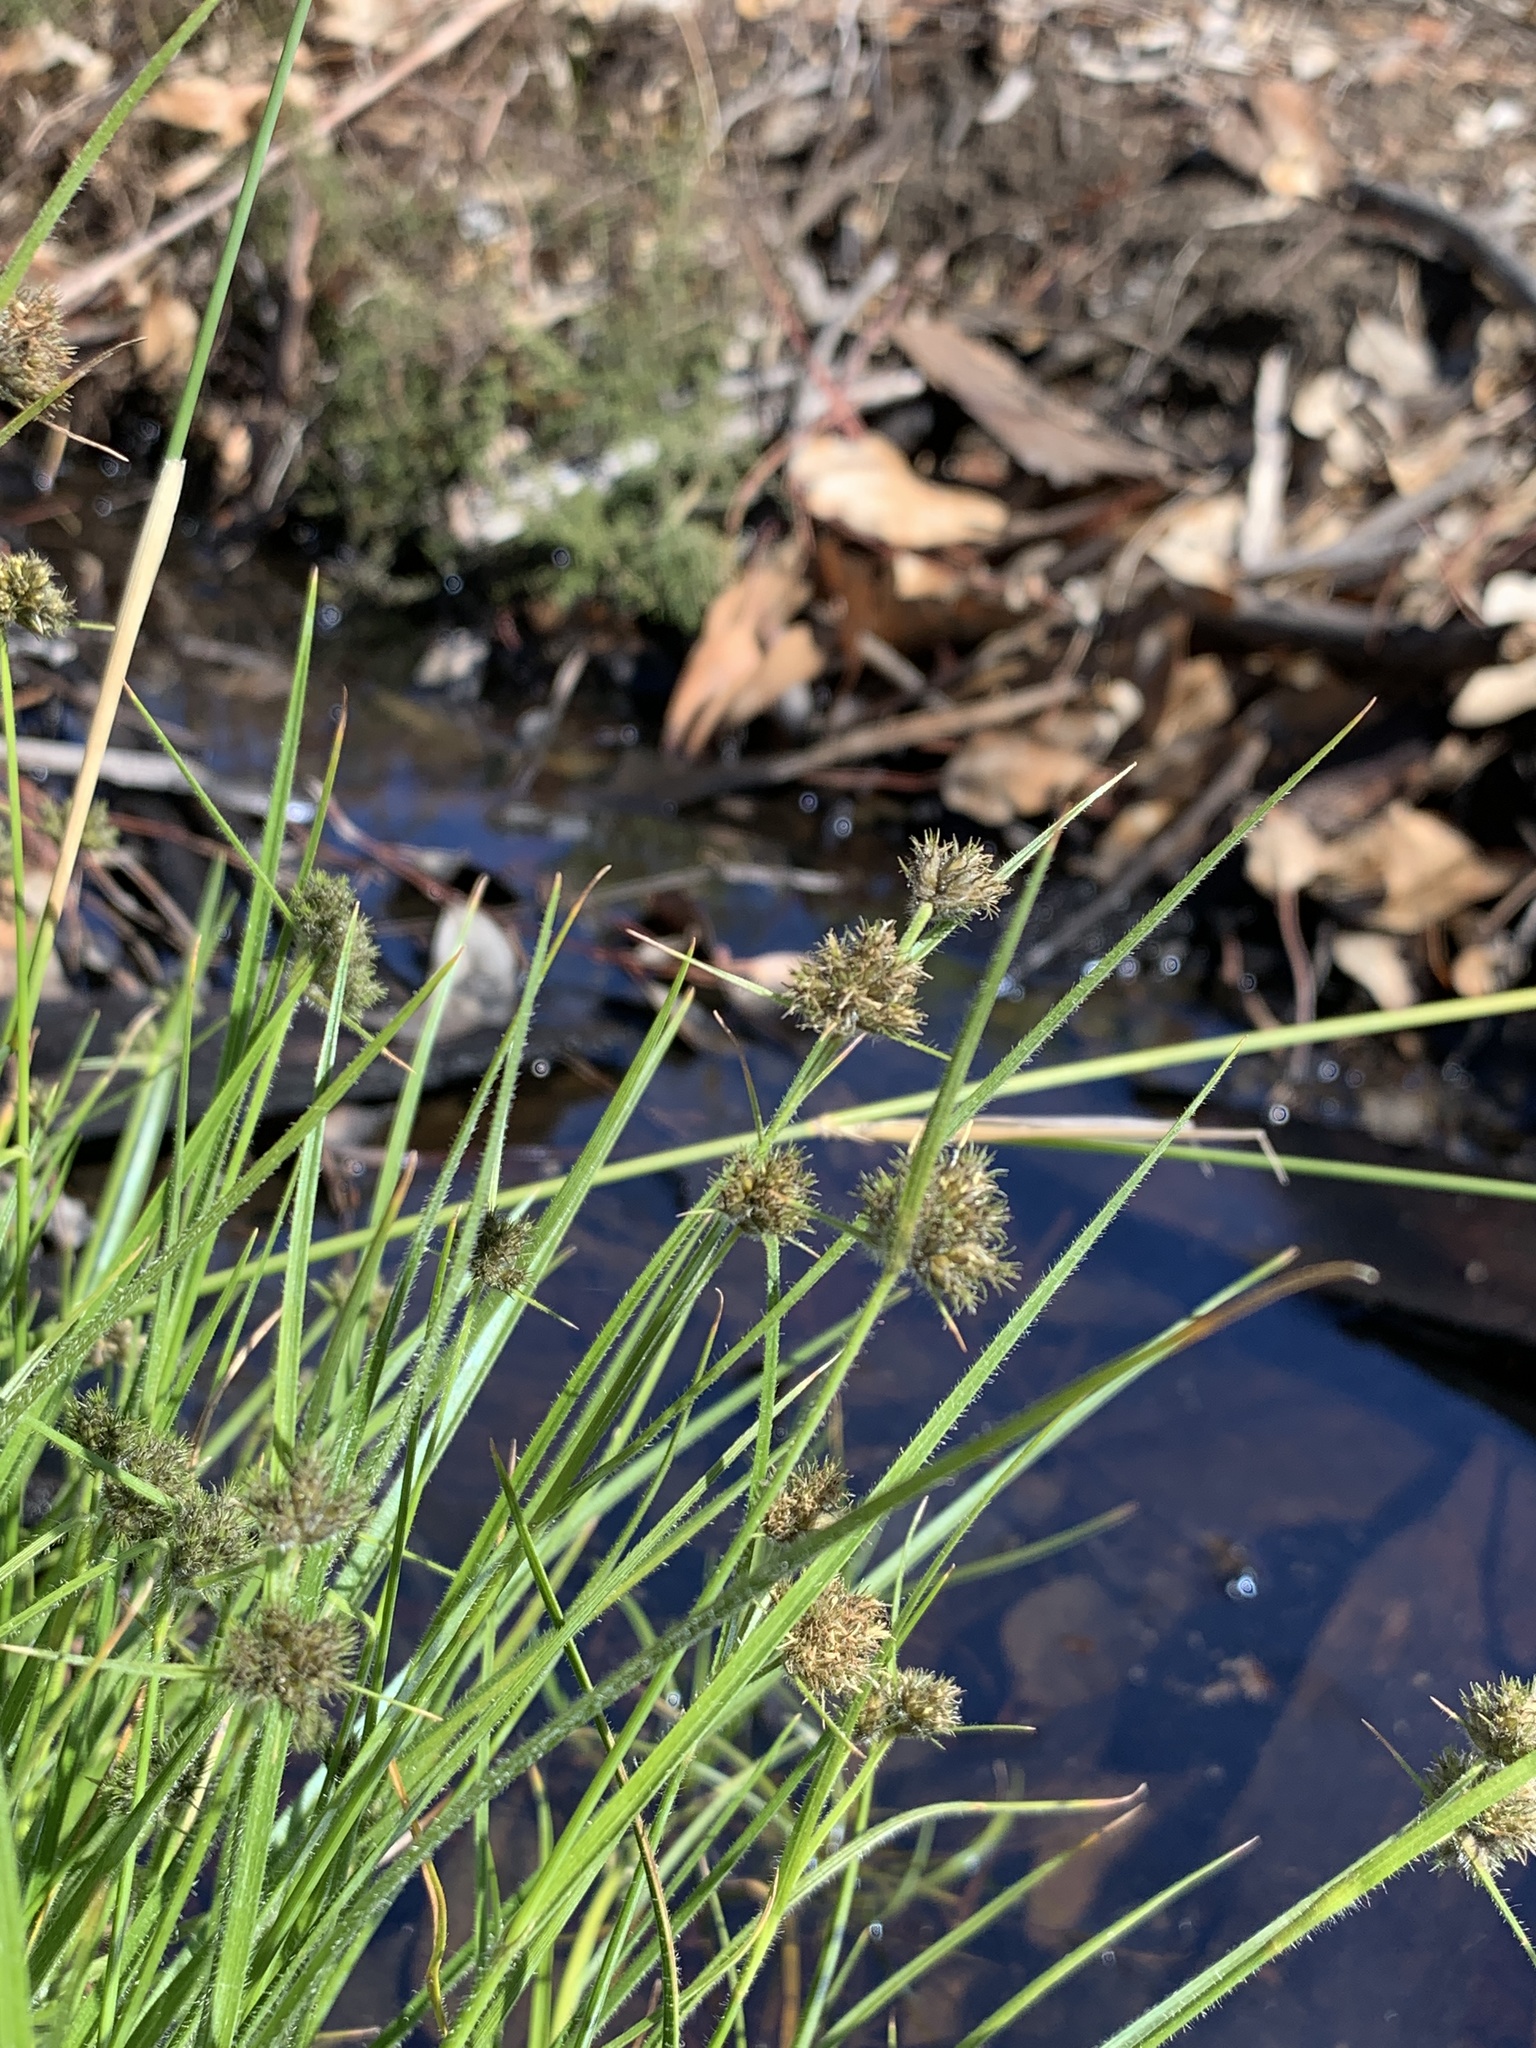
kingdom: Plantae
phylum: Tracheophyta
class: Liliopsida
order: Poales
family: Cyperaceae
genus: Fuirena
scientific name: Fuirena hirsuta
